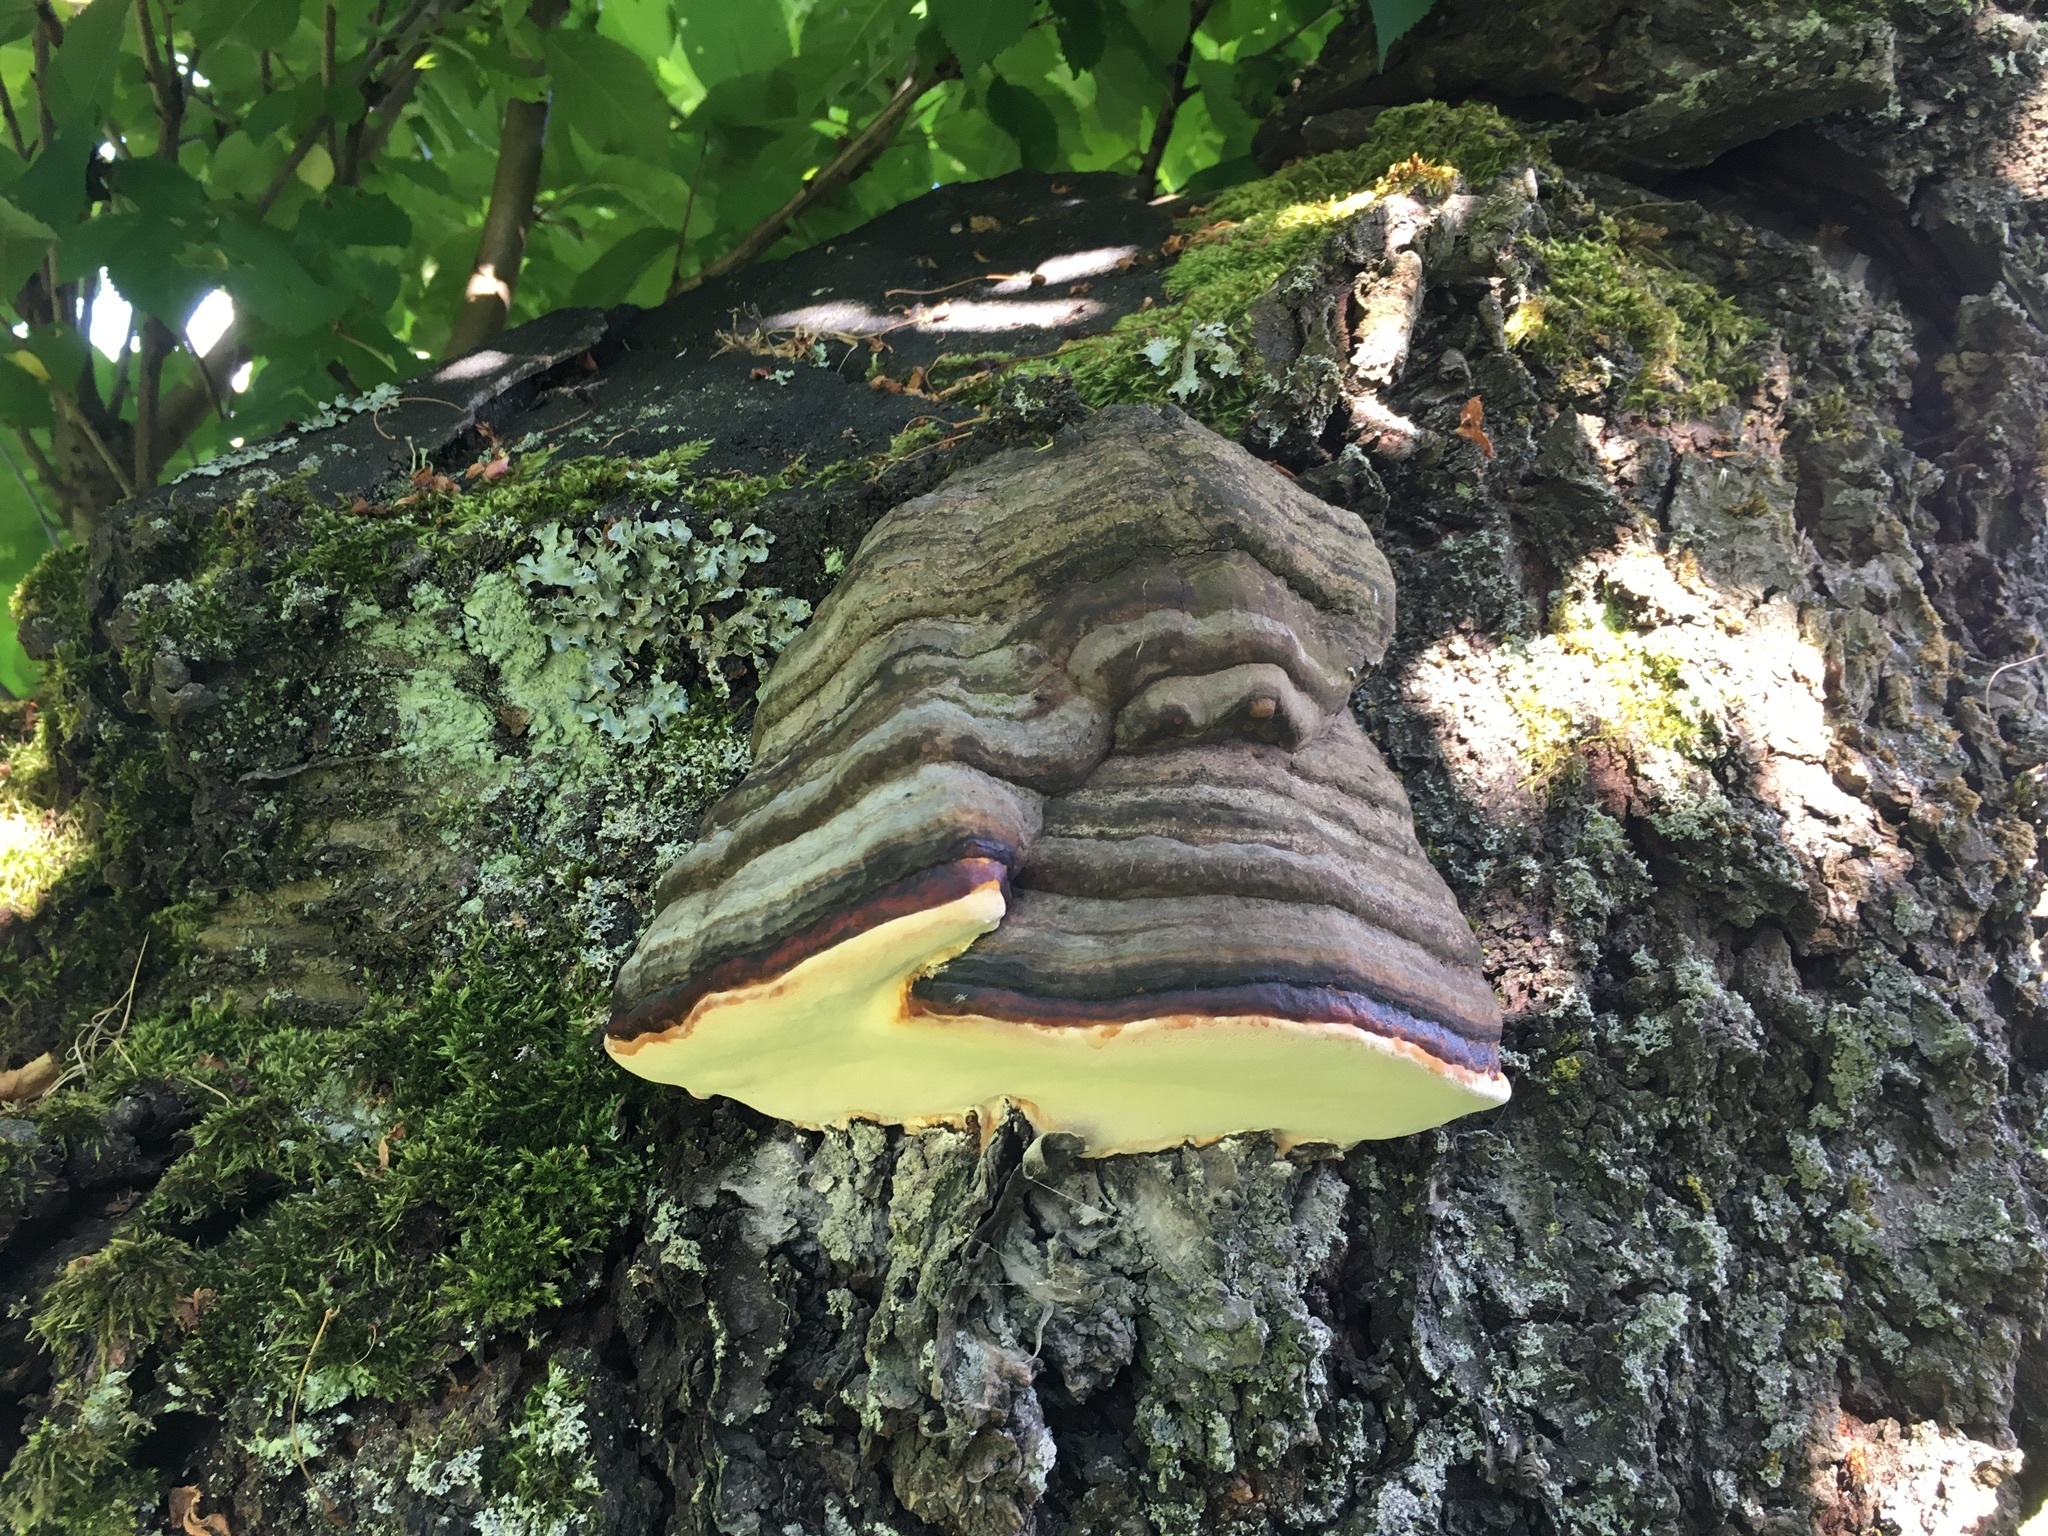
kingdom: Fungi
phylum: Basidiomycota
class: Agaricomycetes
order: Polyporales
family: Fomitopsidaceae
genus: Fomitopsis
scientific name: Fomitopsis pinicola
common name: Red-belted bracket
